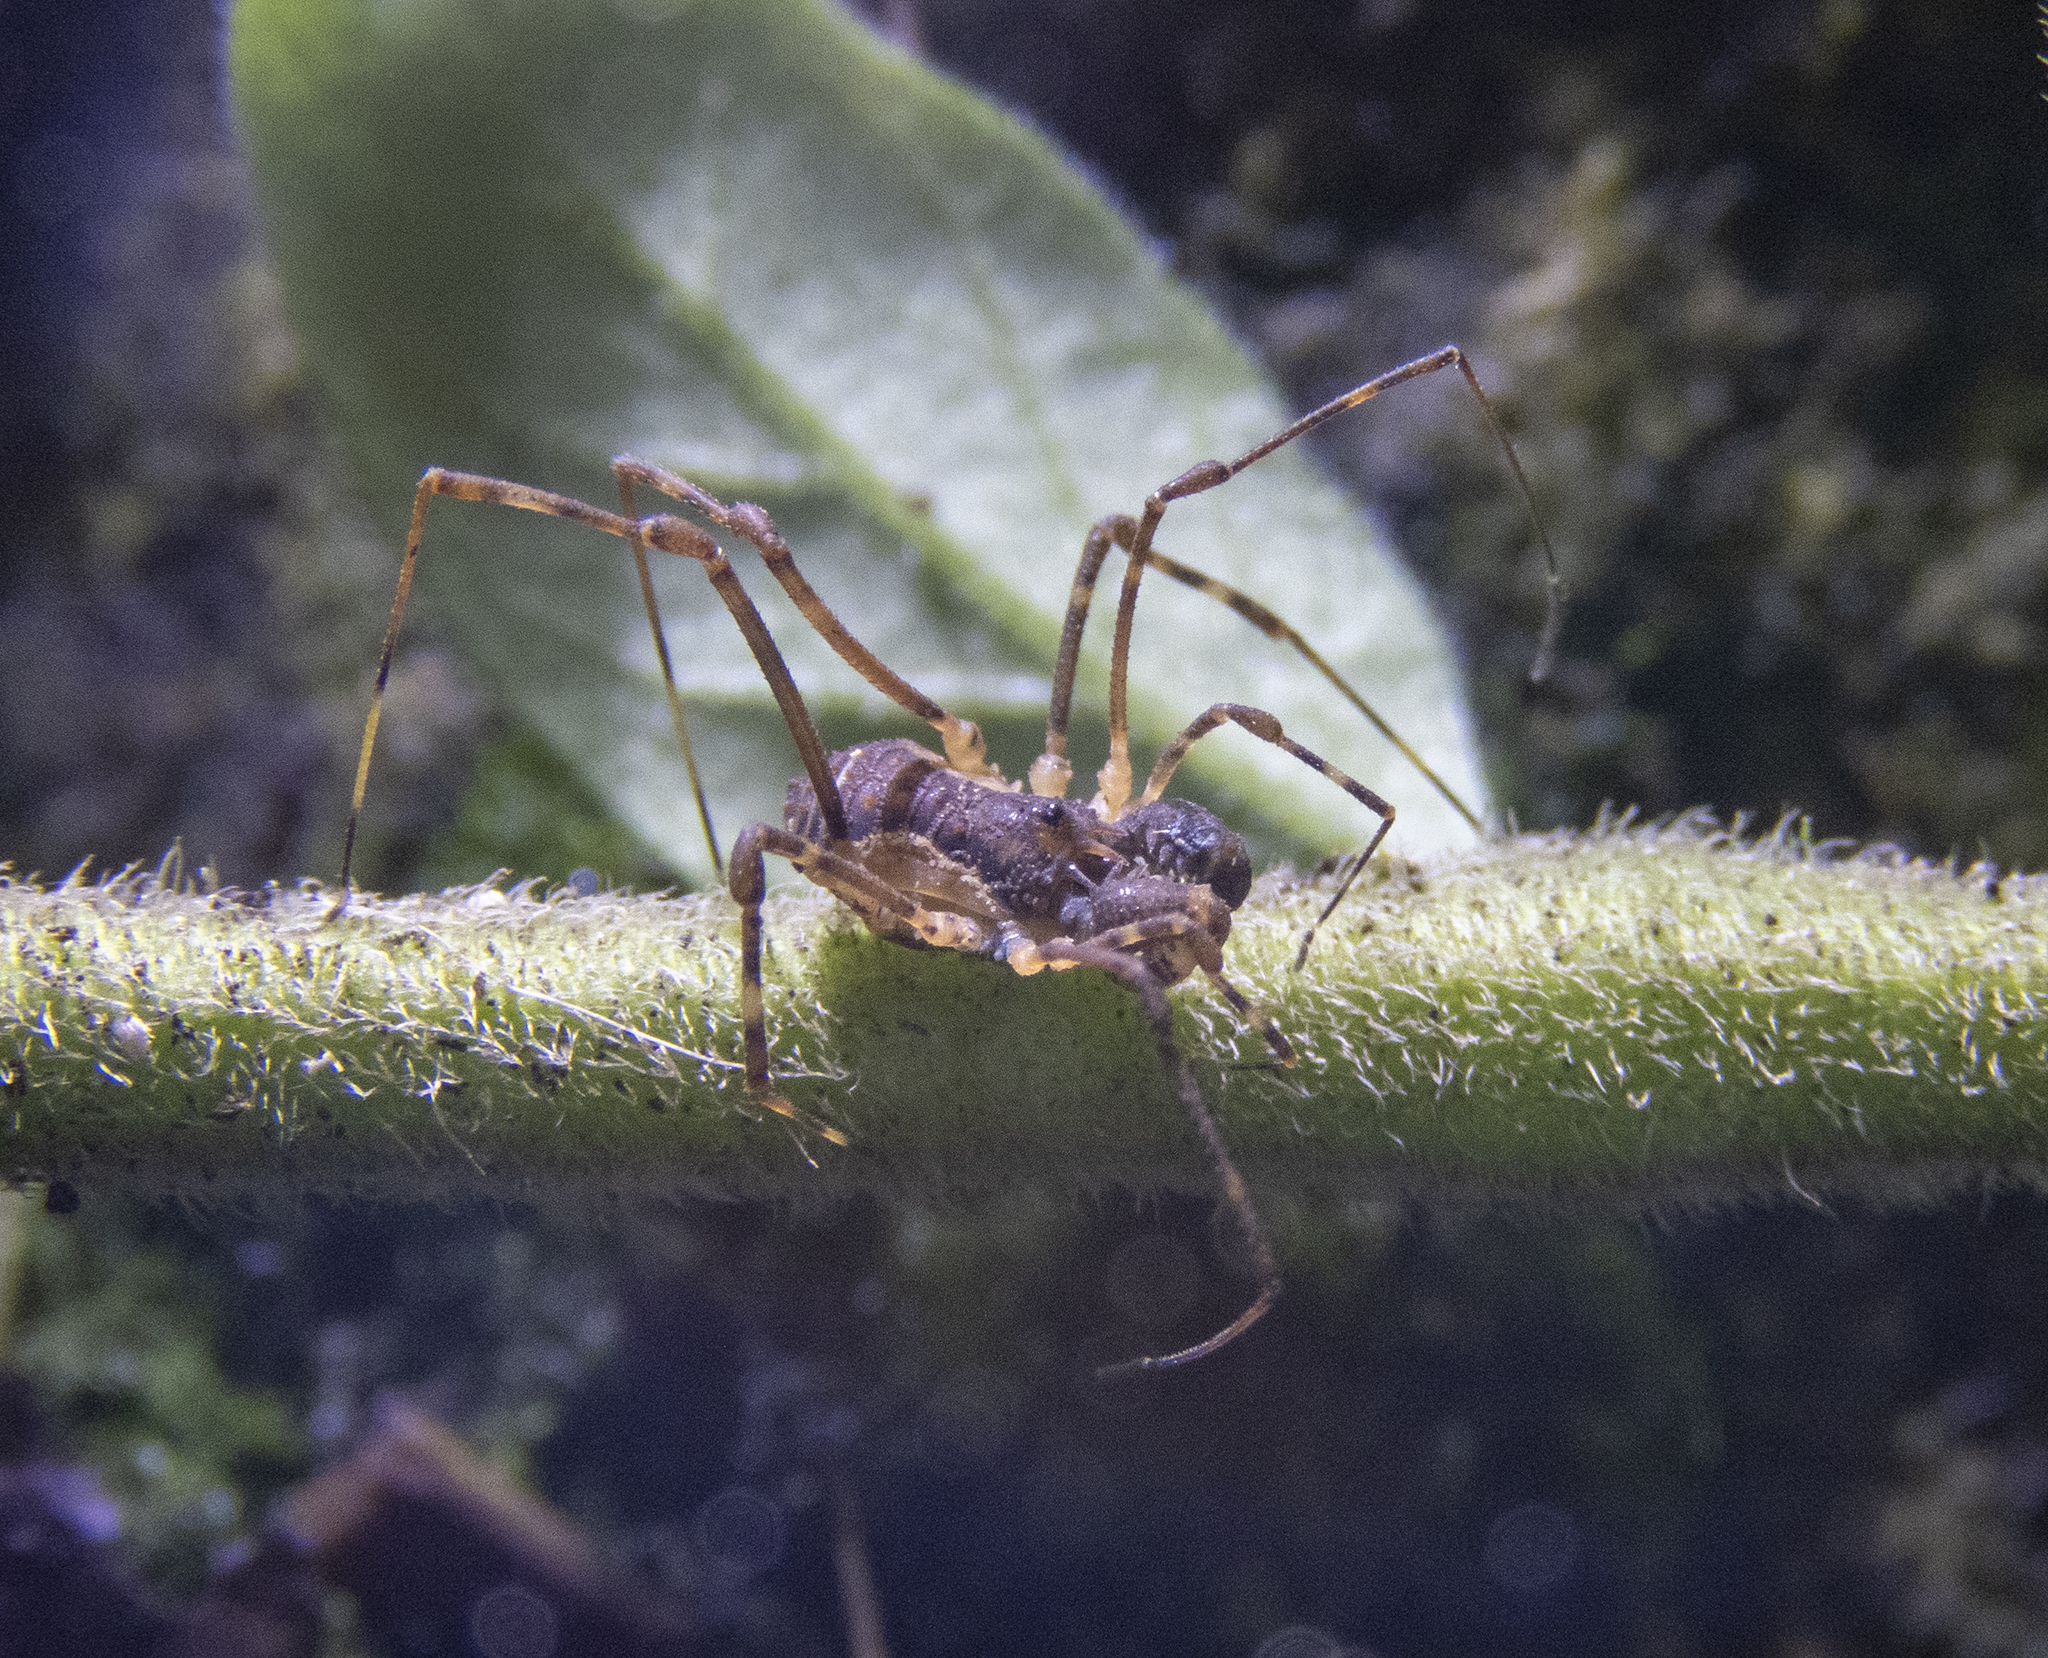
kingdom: Animalia
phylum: Arthropoda
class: Arachnida
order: Opiliones
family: Triaenonychidae
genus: Algidia
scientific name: Algidia interrupta
